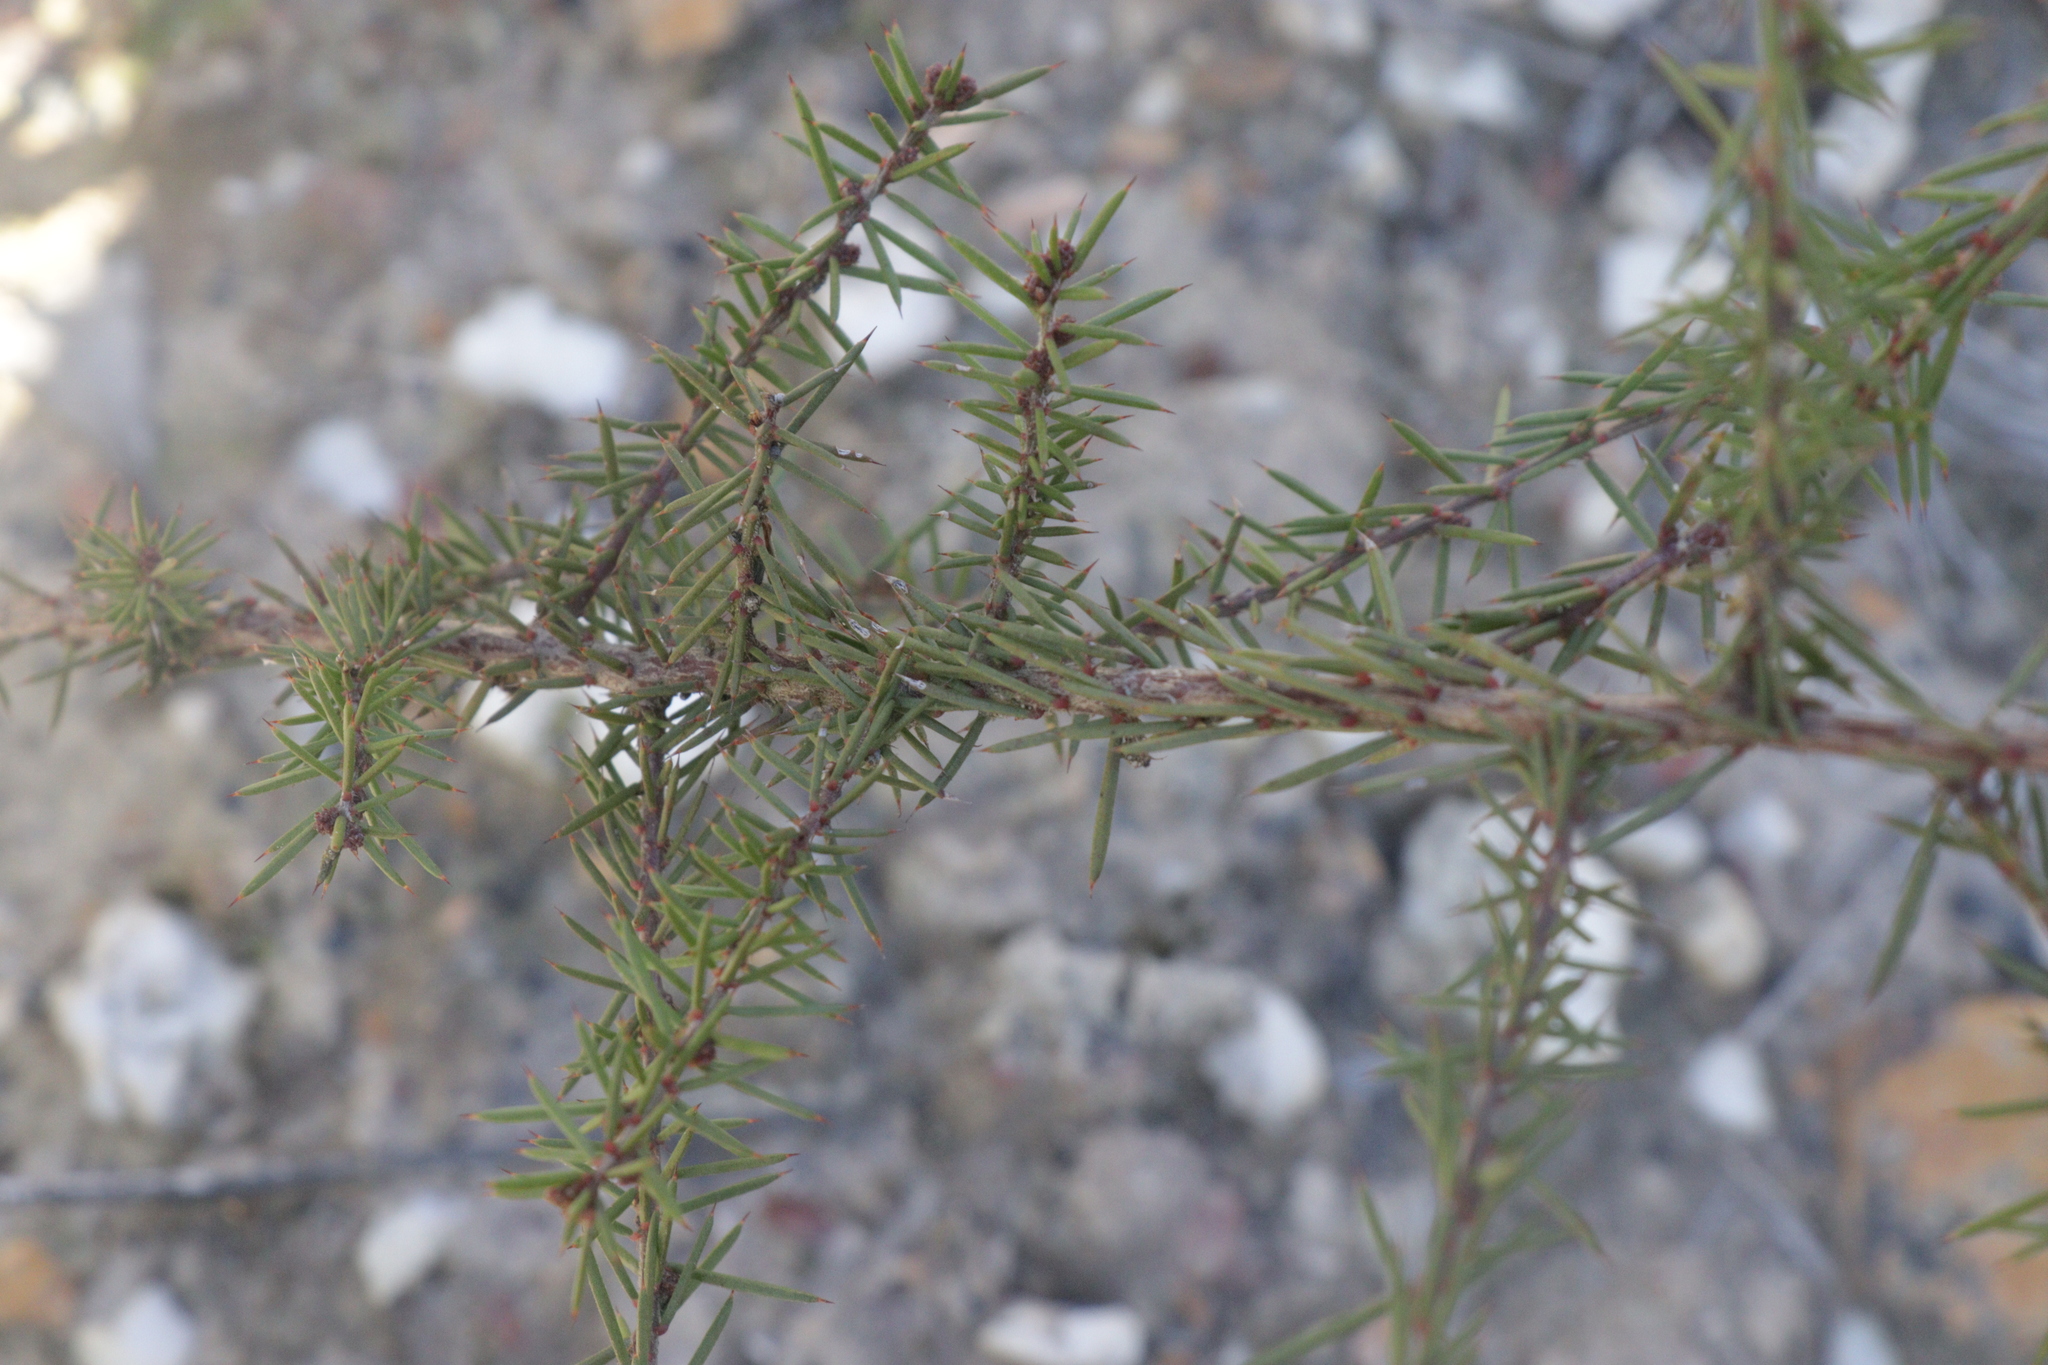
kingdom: Plantae
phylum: Tracheophyta
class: Magnoliopsida
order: Fabales
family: Fabaceae
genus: Acacia
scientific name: Acacia aculeatissima
